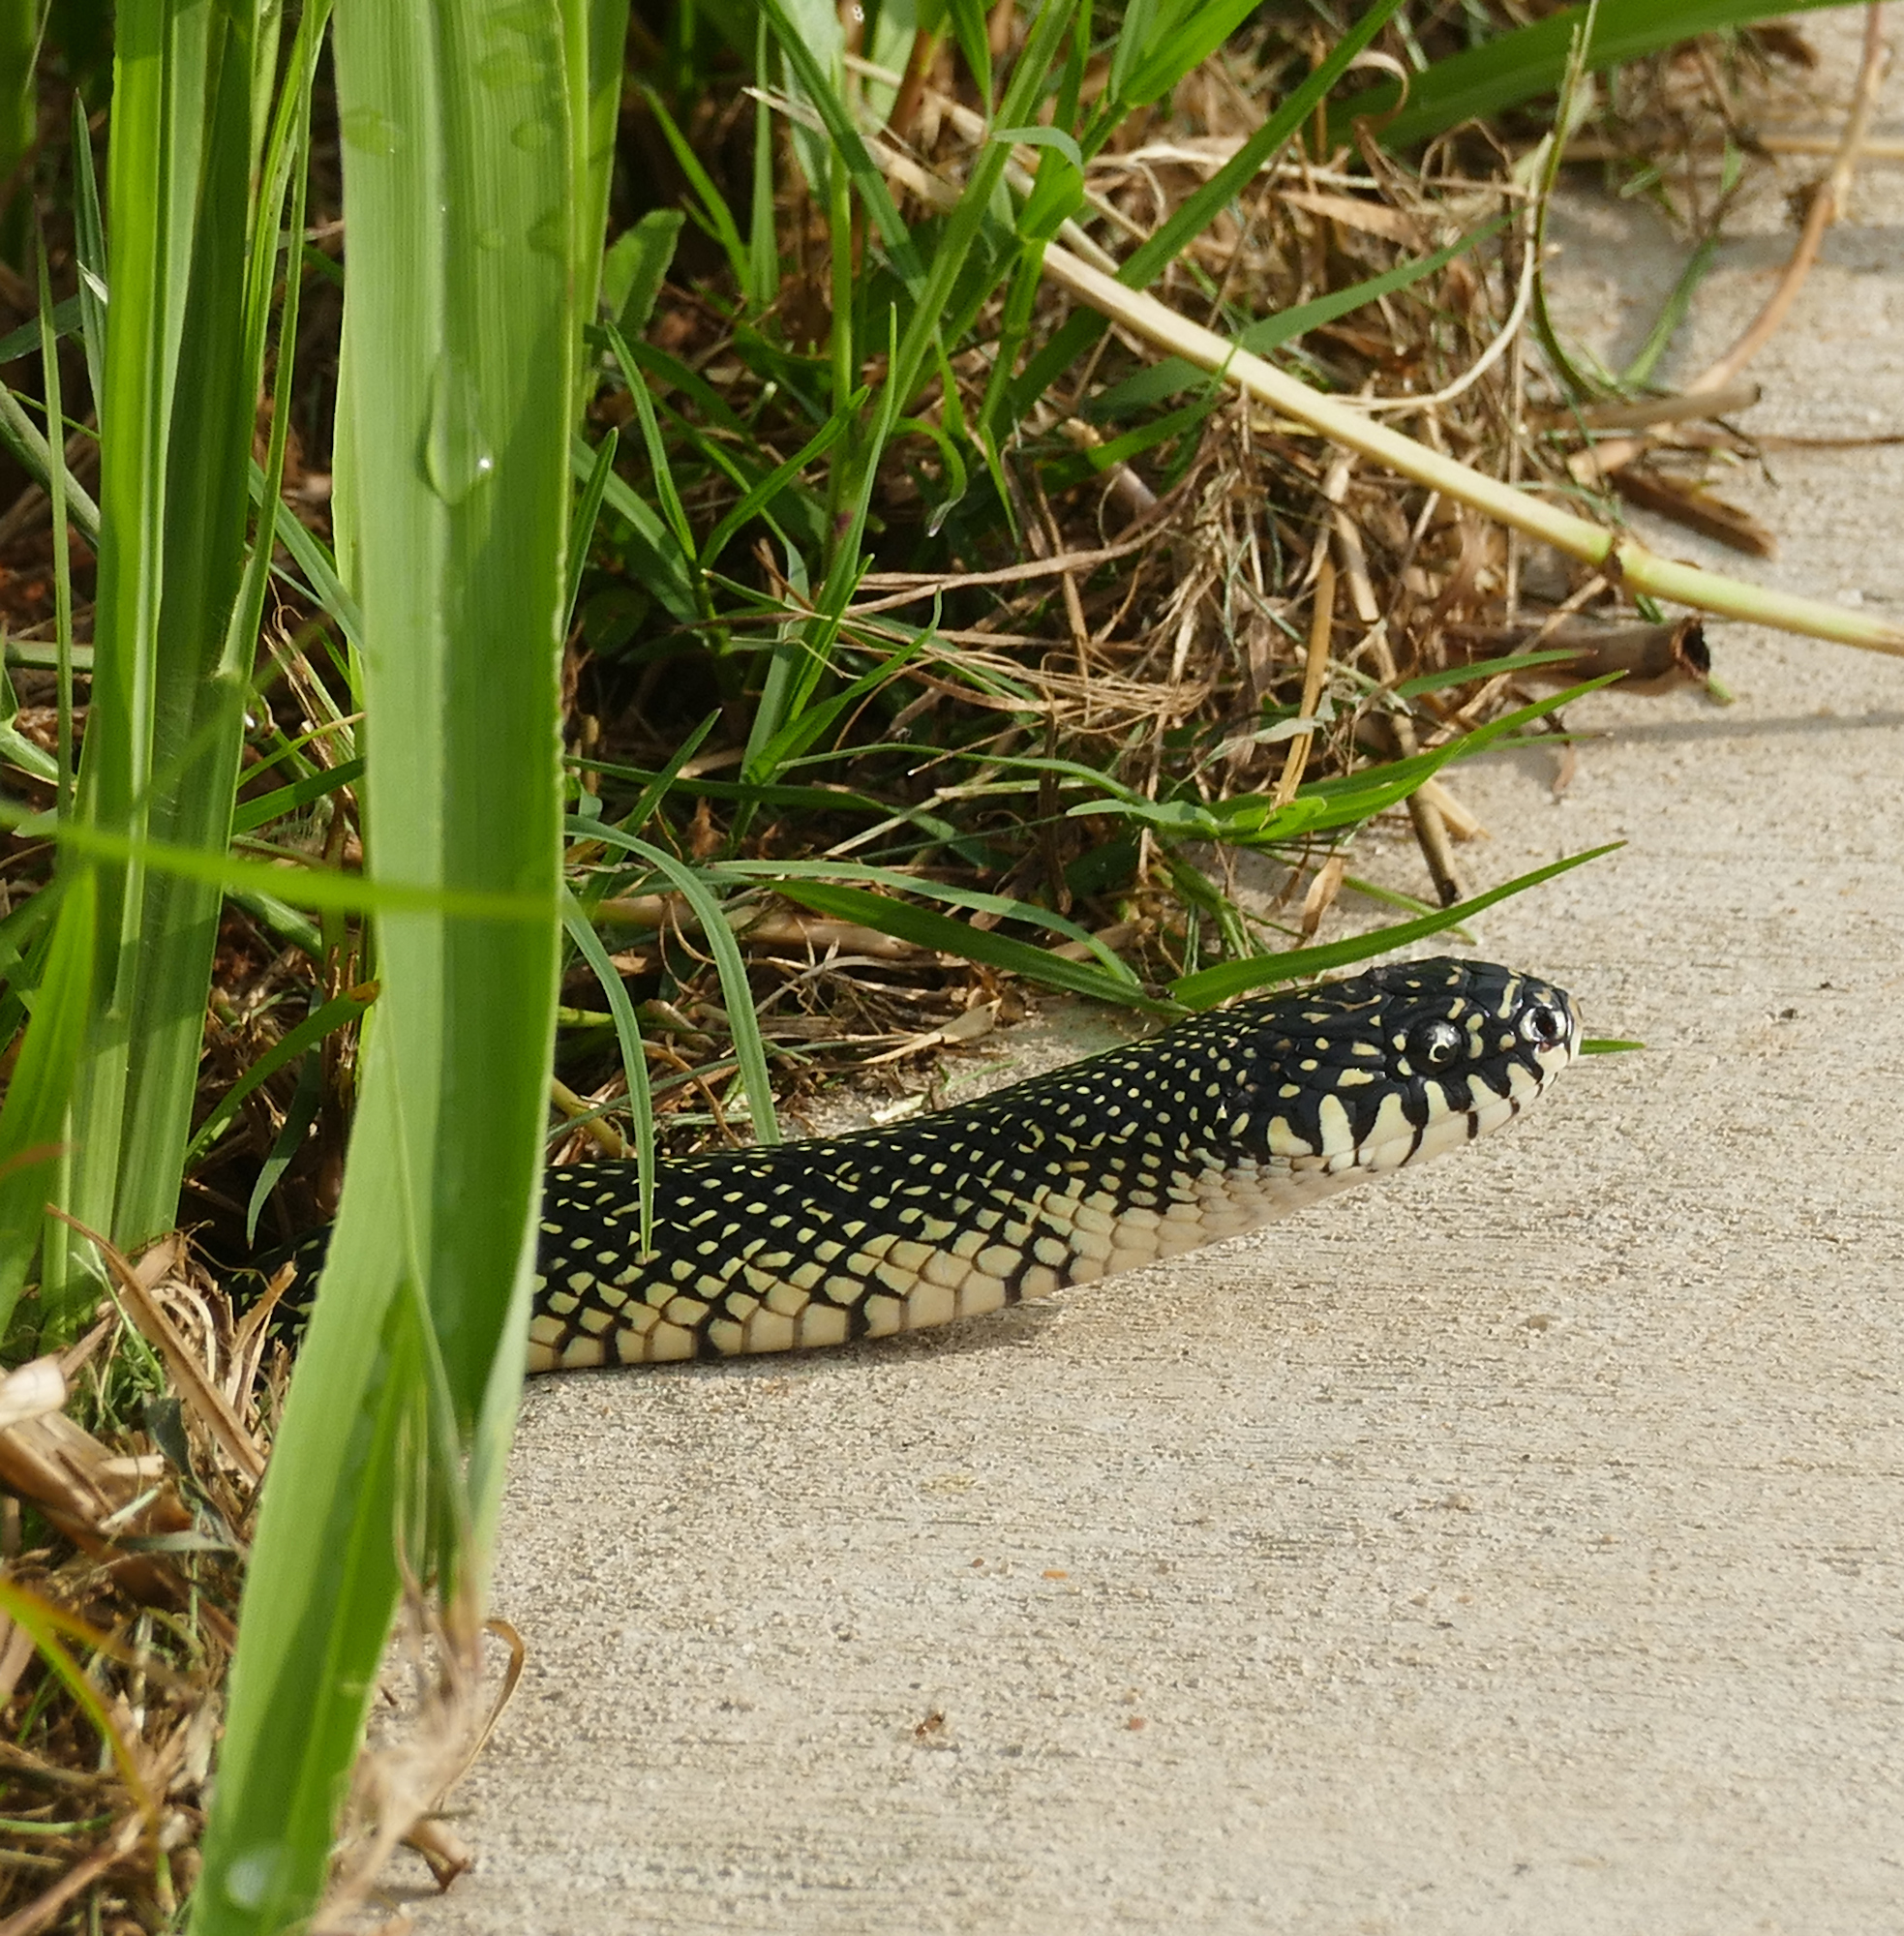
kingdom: Animalia
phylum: Chordata
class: Squamata
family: Colubridae
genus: Lampropeltis
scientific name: Lampropeltis holbrooki
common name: Speckled kingsnake
